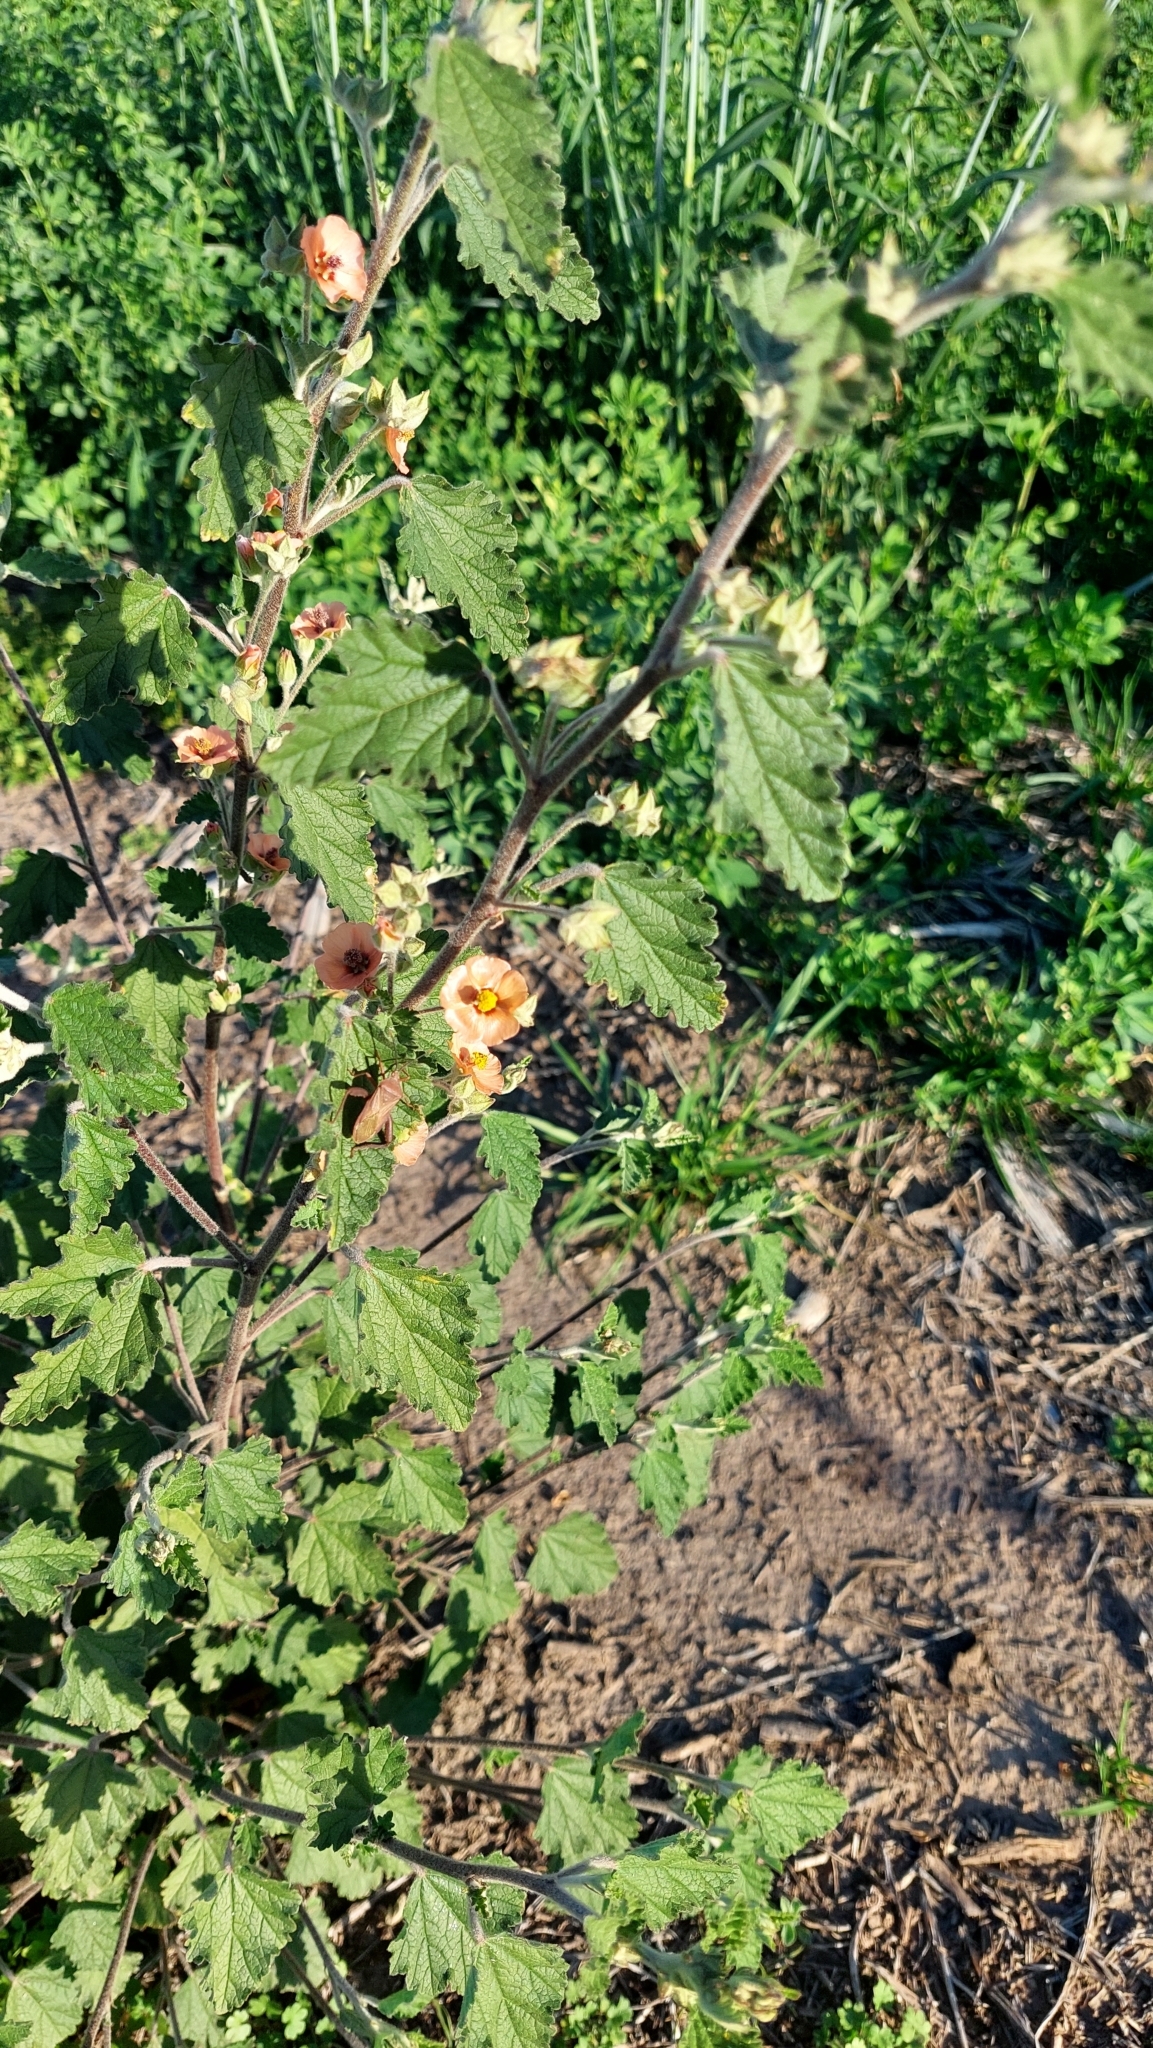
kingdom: Plantae
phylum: Tracheophyta
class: Magnoliopsida
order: Malvales
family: Malvaceae
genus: Sphaeralcea
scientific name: Sphaeralcea bonariensis
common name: Latin globemallow
